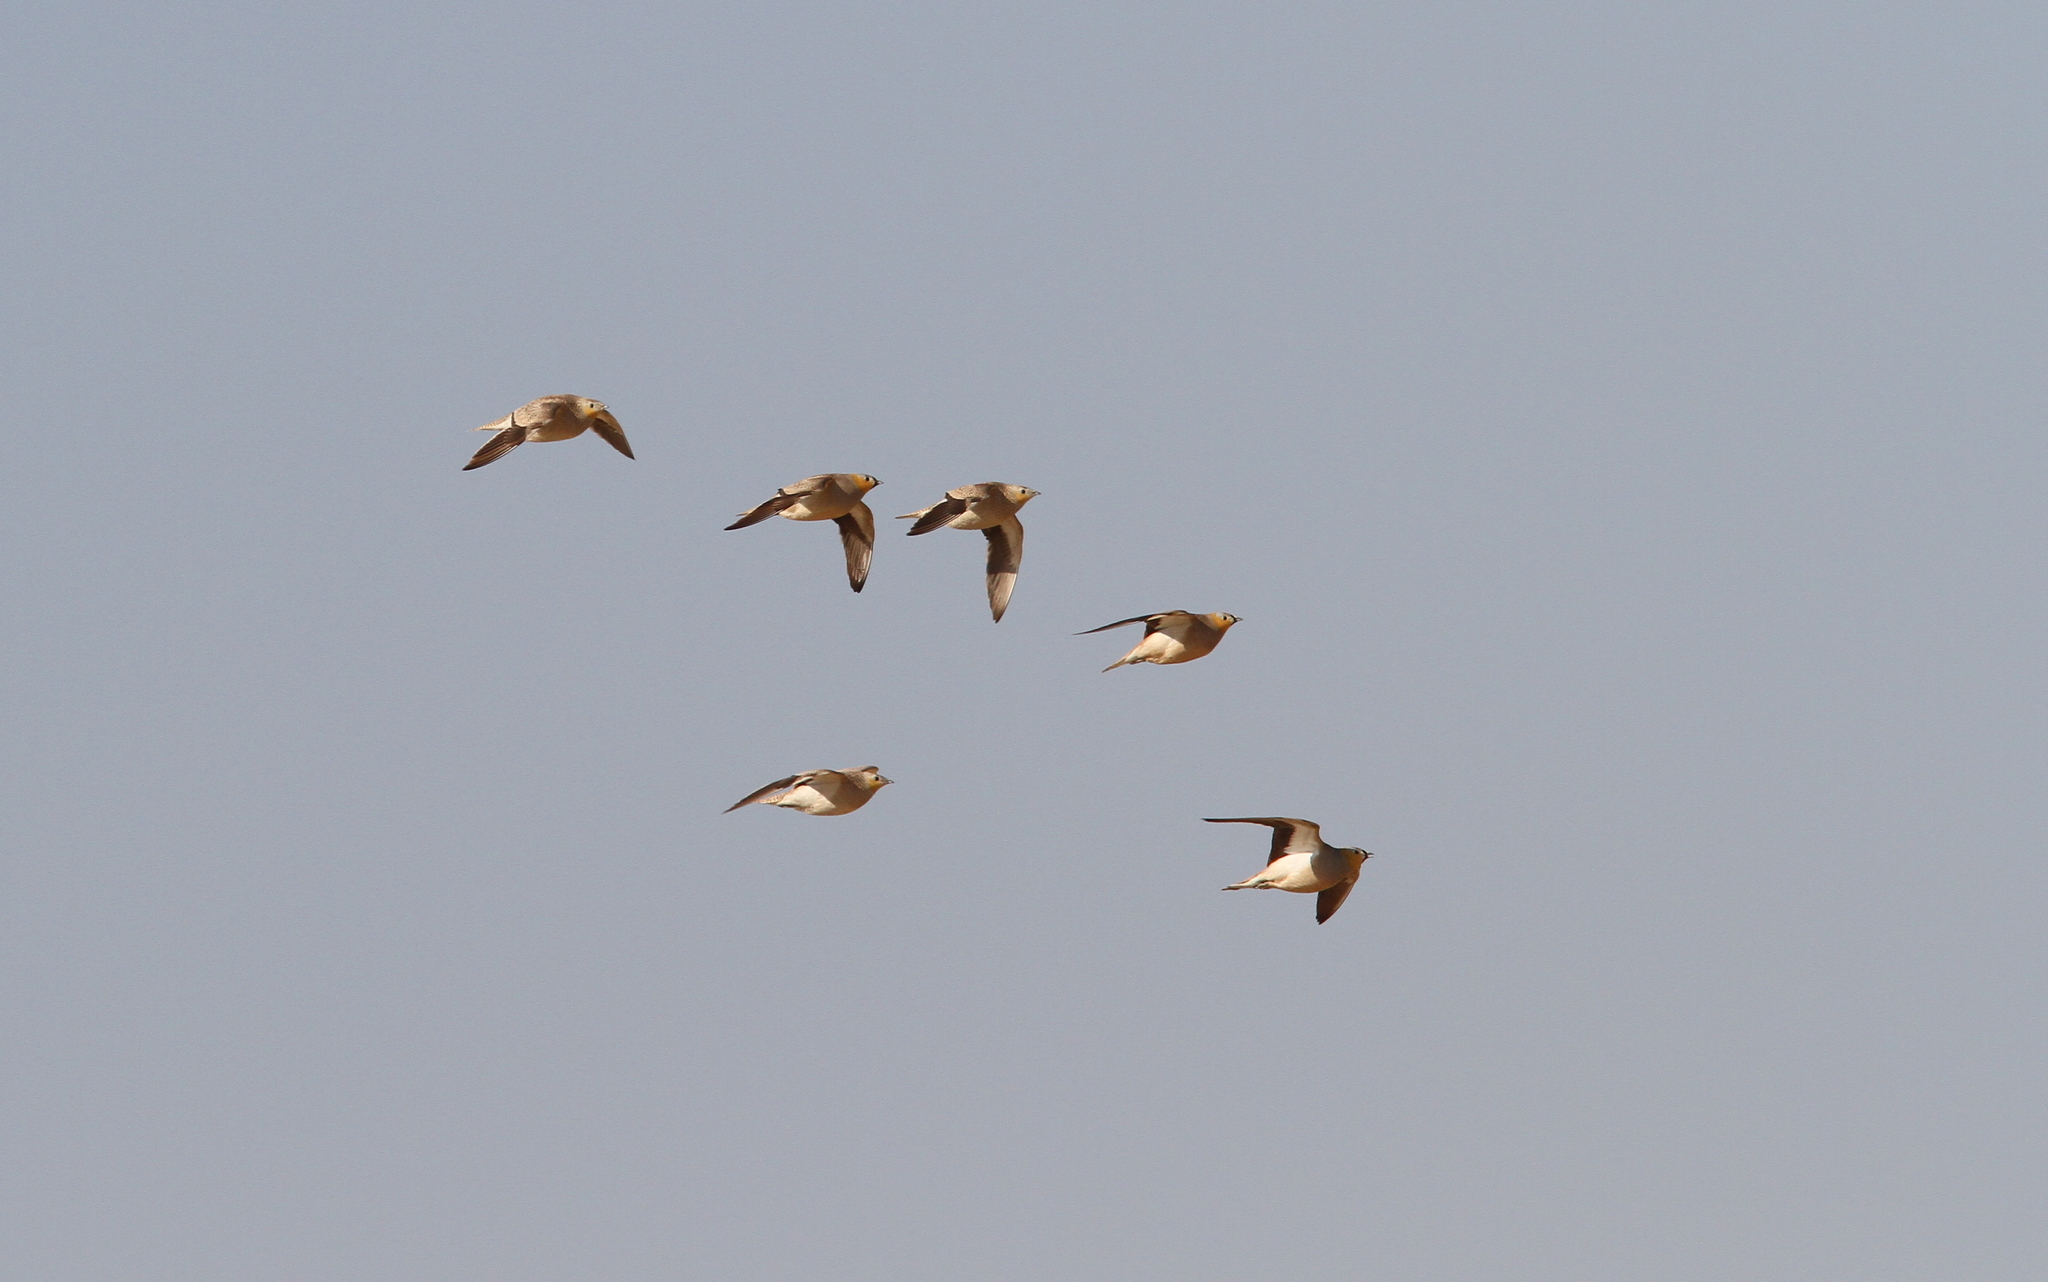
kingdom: Animalia
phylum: Chordata
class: Aves
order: Pteroclidiformes
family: Pteroclididae
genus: Pterocles
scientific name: Pterocles coronatus
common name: Crowned sandgrouse
